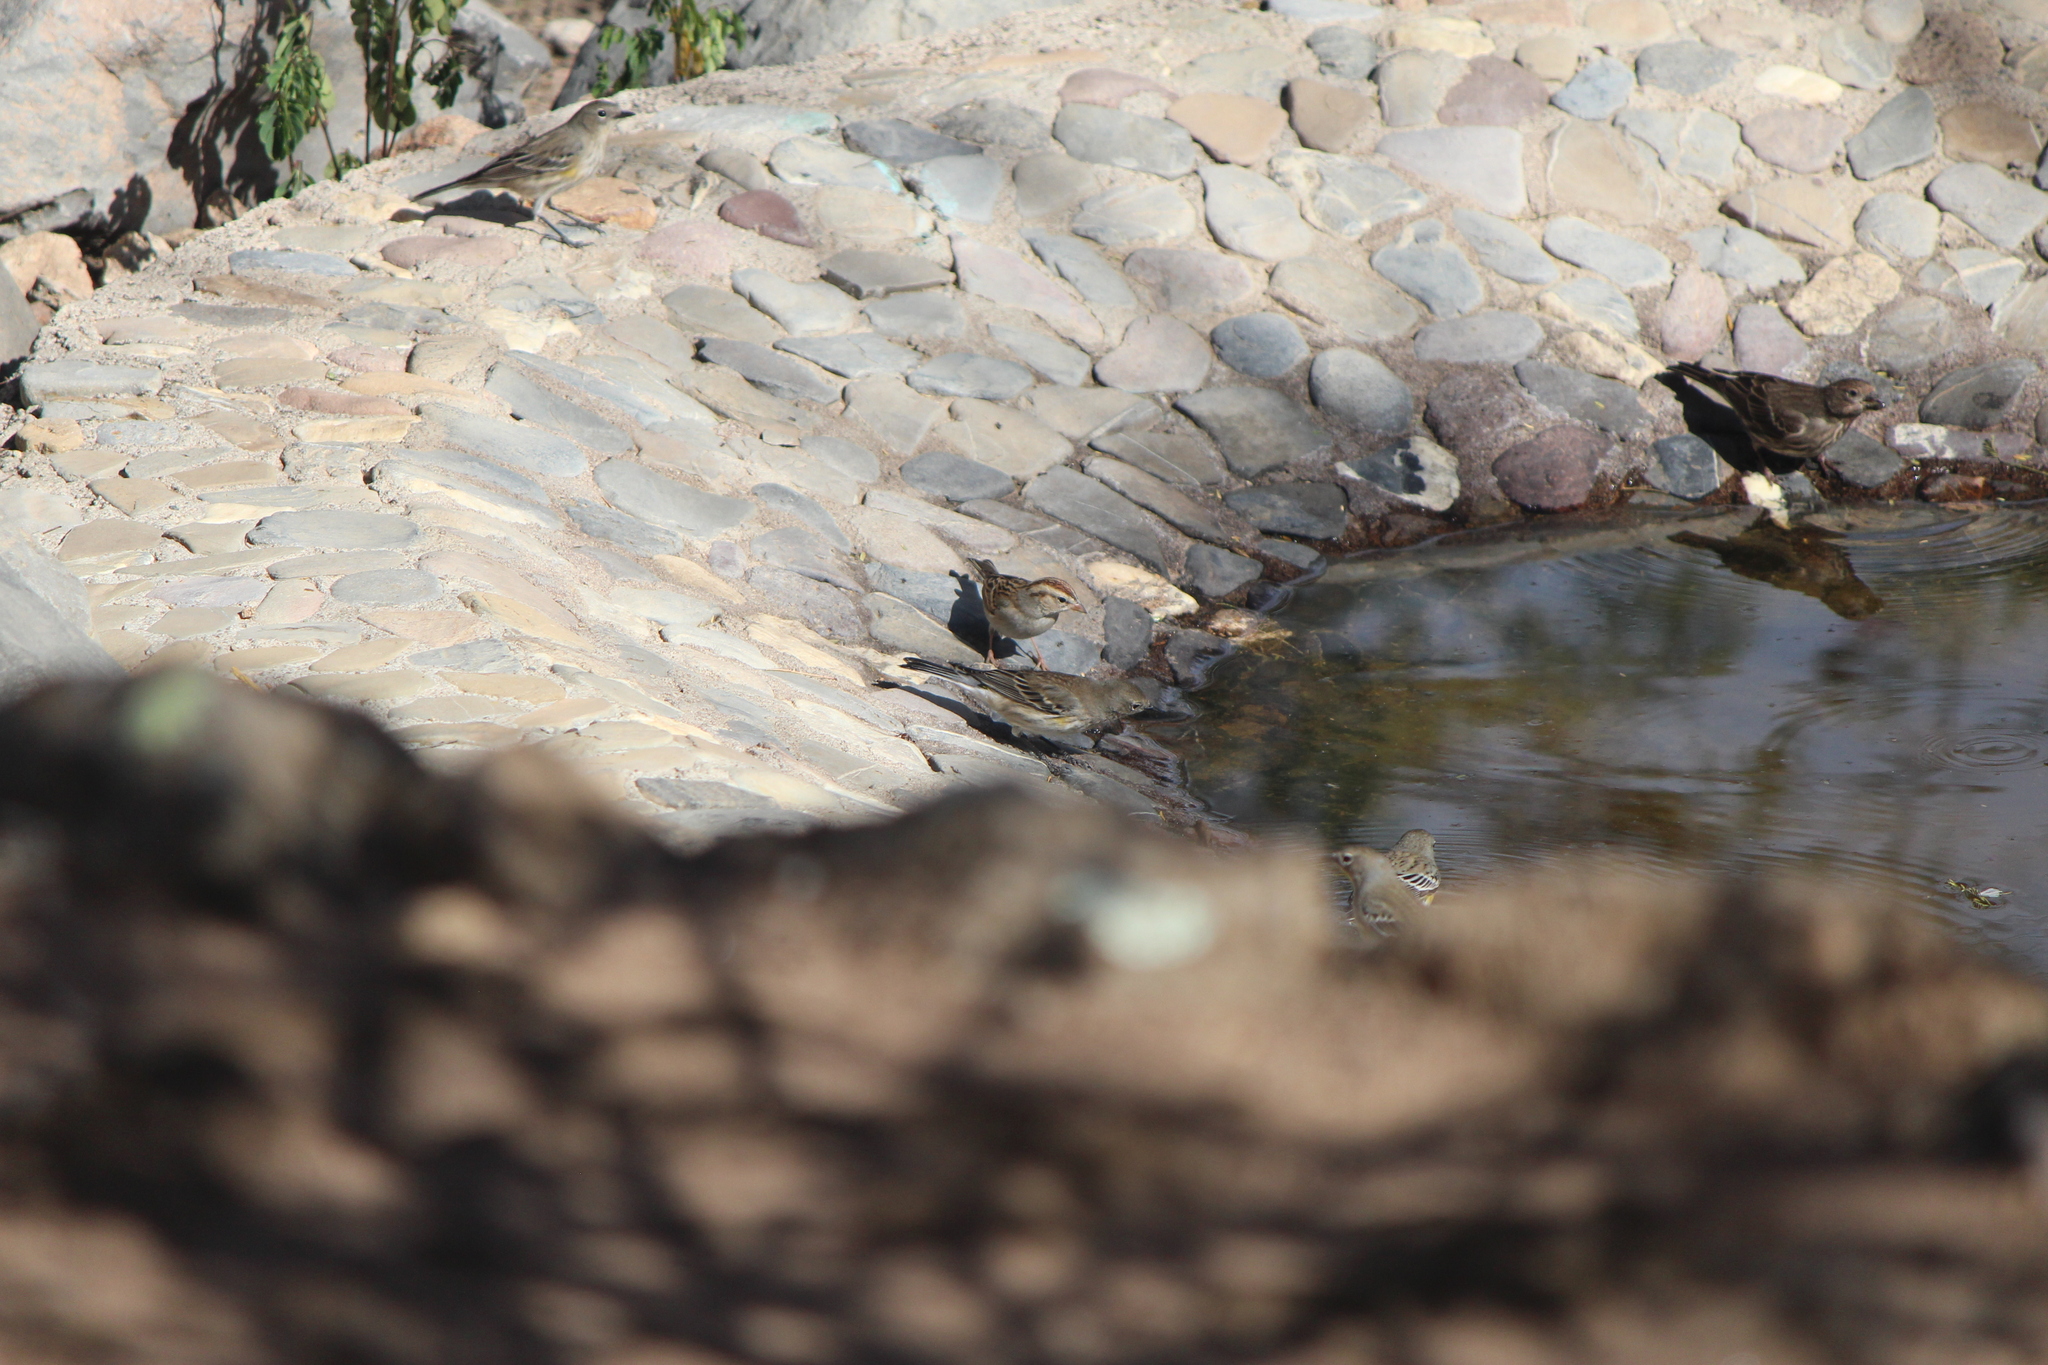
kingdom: Animalia
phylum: Chordata
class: Aves
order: Passeriformes
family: Passerellidae
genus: Spizella
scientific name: Spizella passerina
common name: Chipping sparrow
